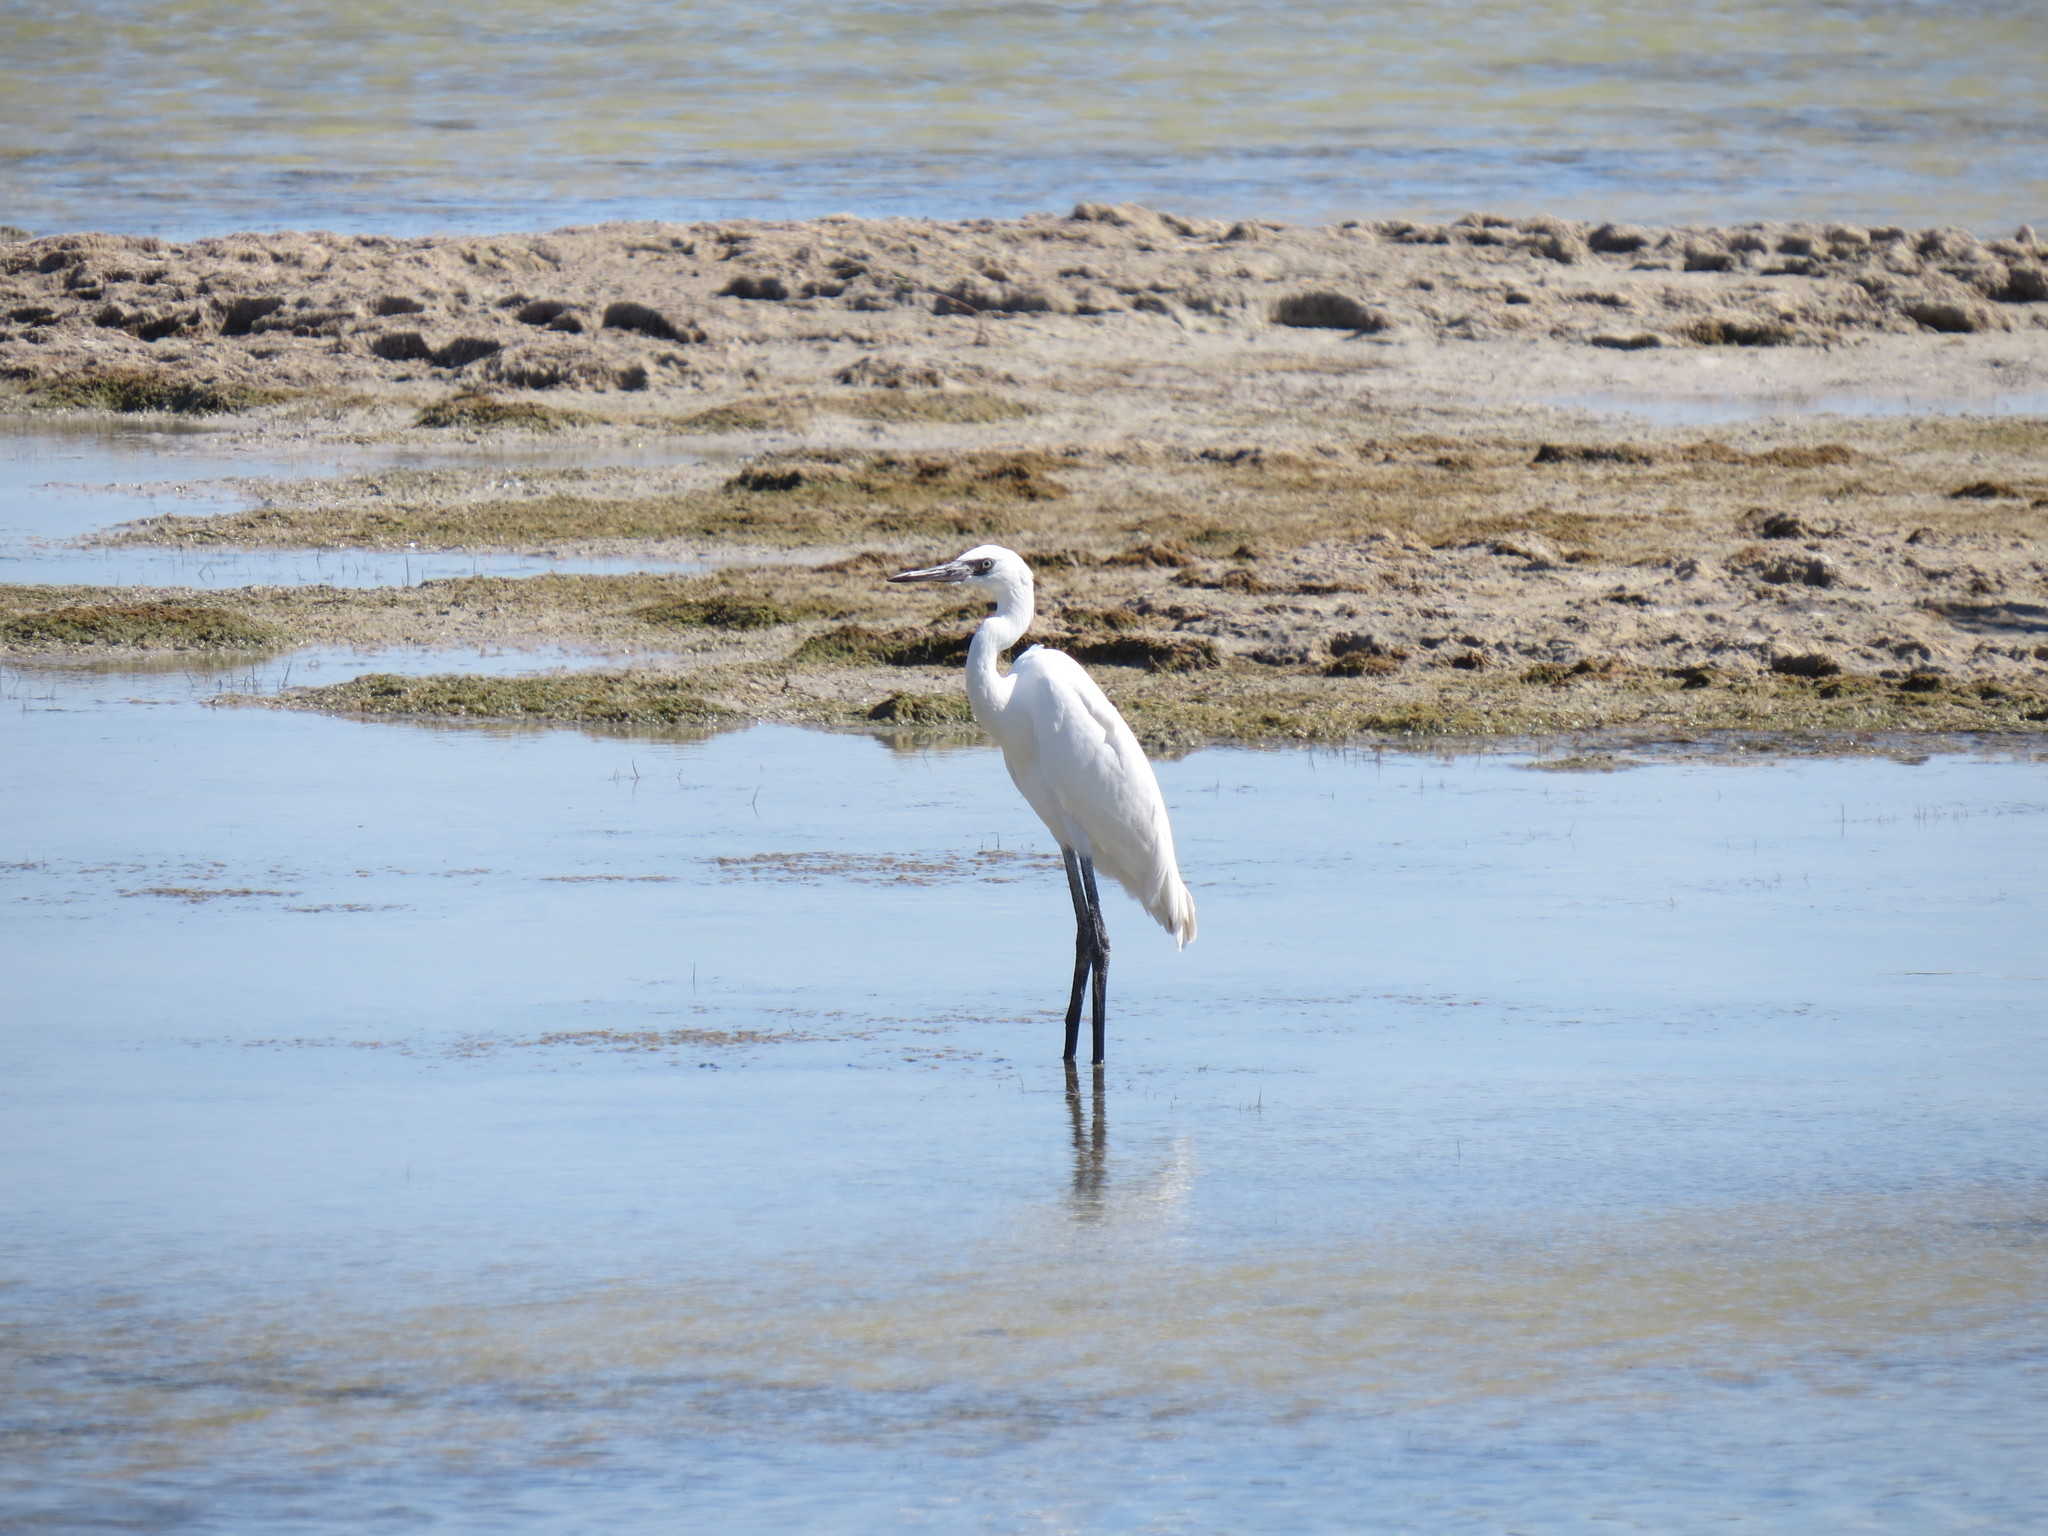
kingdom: Animalia
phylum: Chordata
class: Aves
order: Pelecaniformes
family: Ardeidae
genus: Egretta
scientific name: Egretta rufescens
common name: Reddish egret
